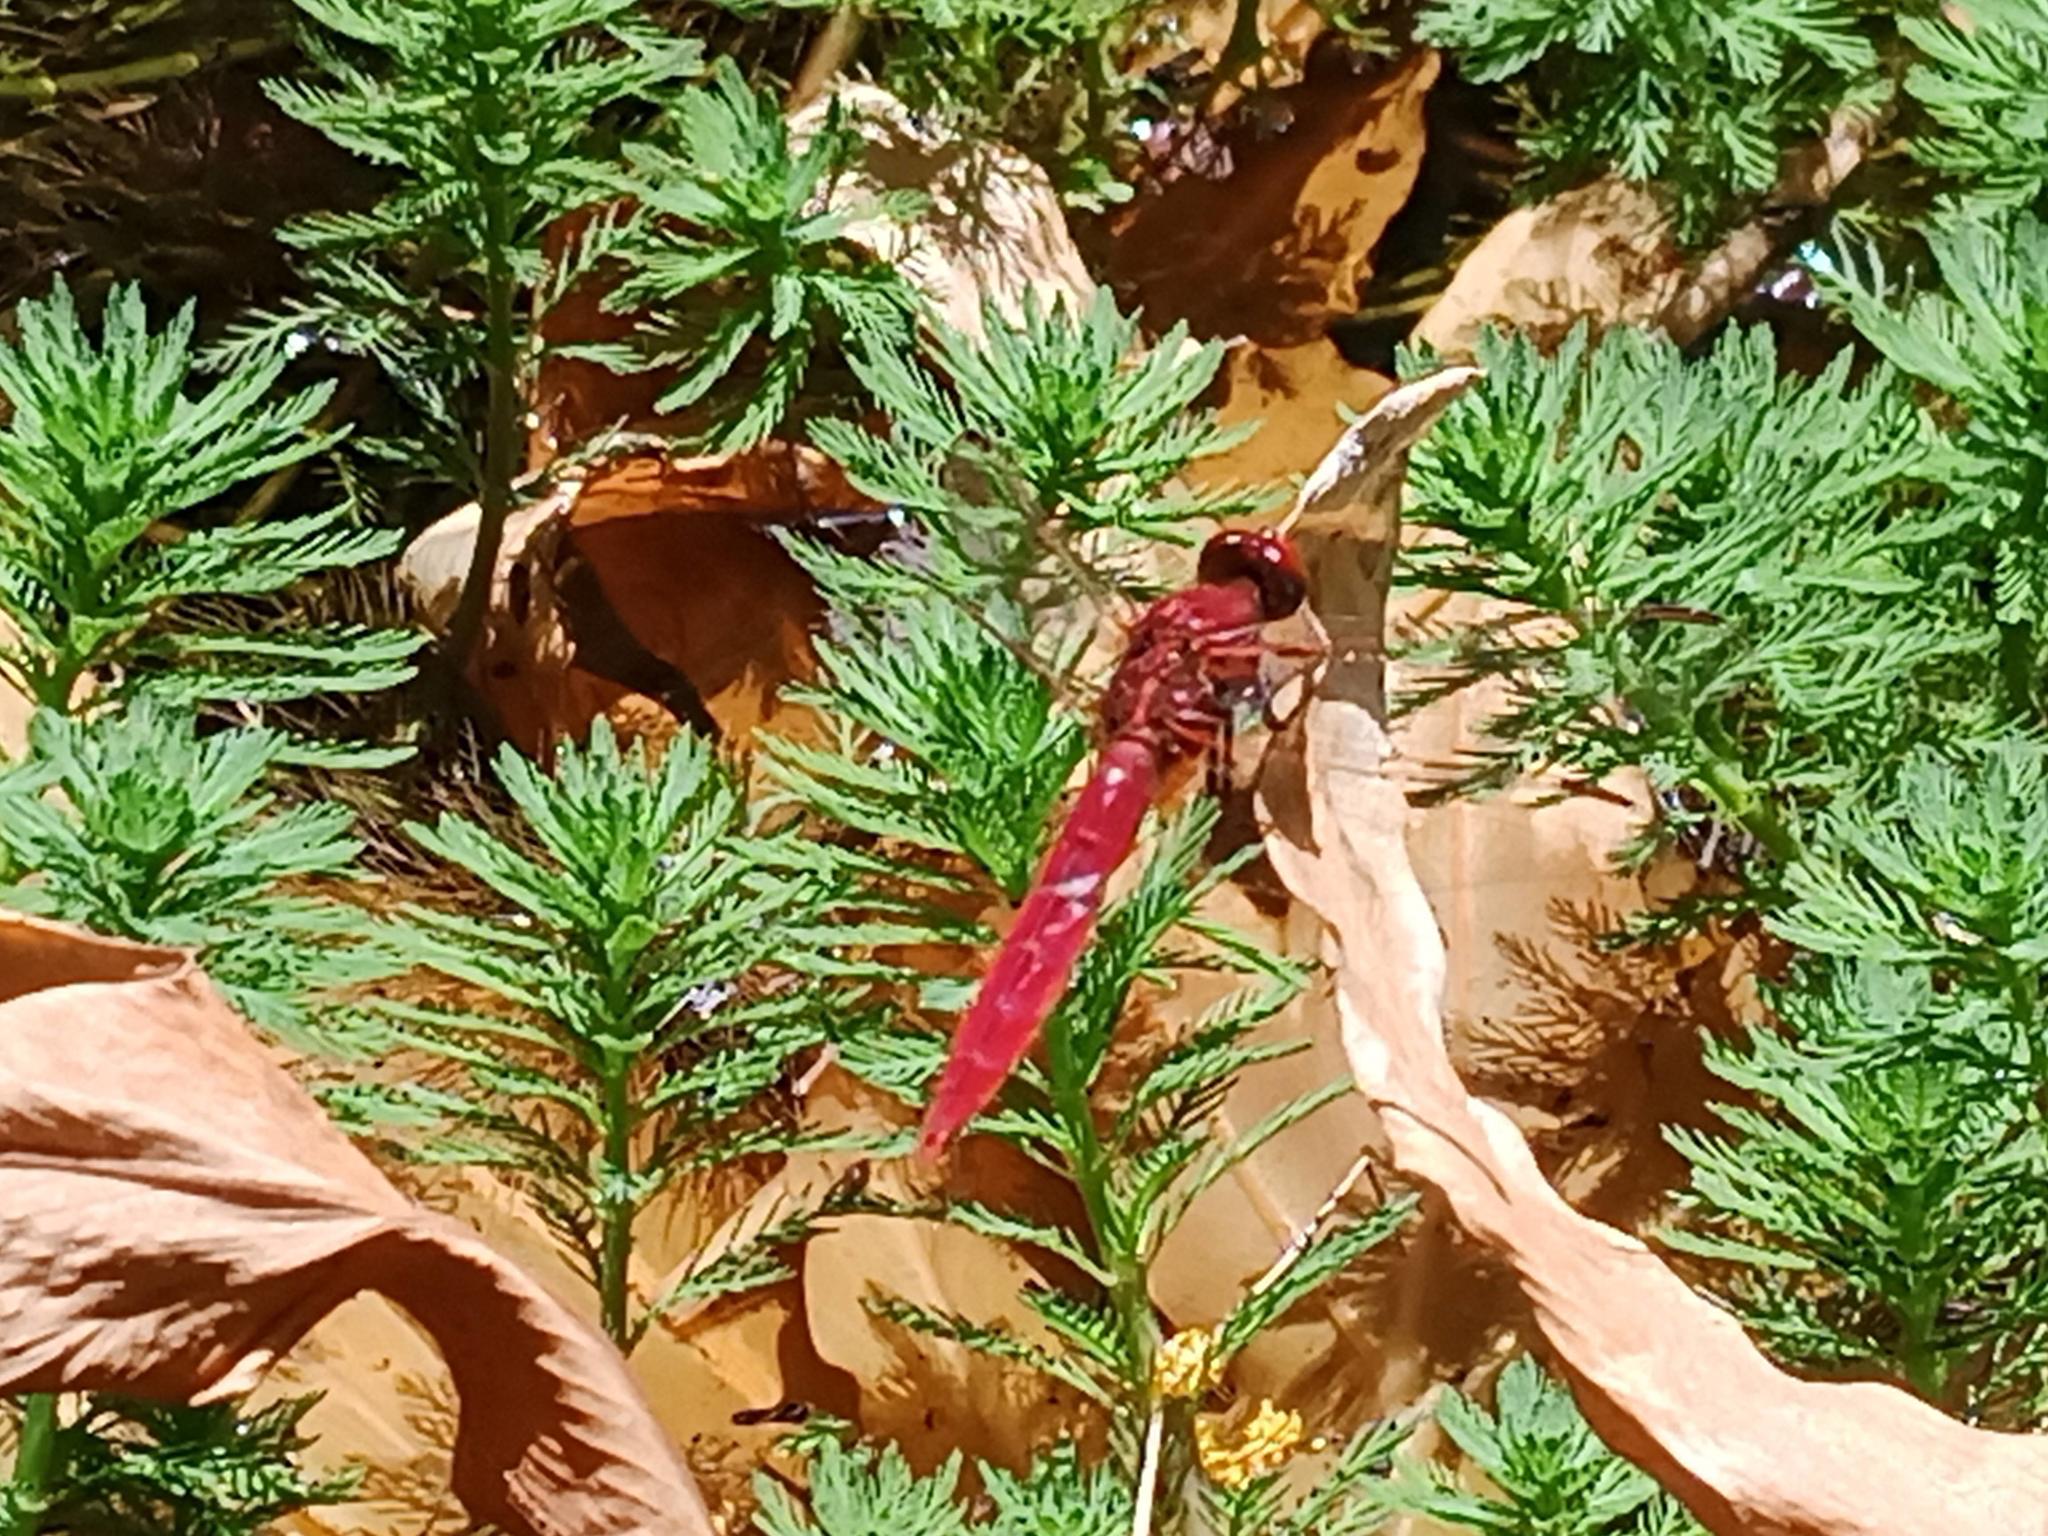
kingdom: Animalia
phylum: Arthropoda
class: Insecta
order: Odonata
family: Libellulidae
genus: Crocothemis
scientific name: Crocothemis erythraea
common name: Scarlet dragonfly
